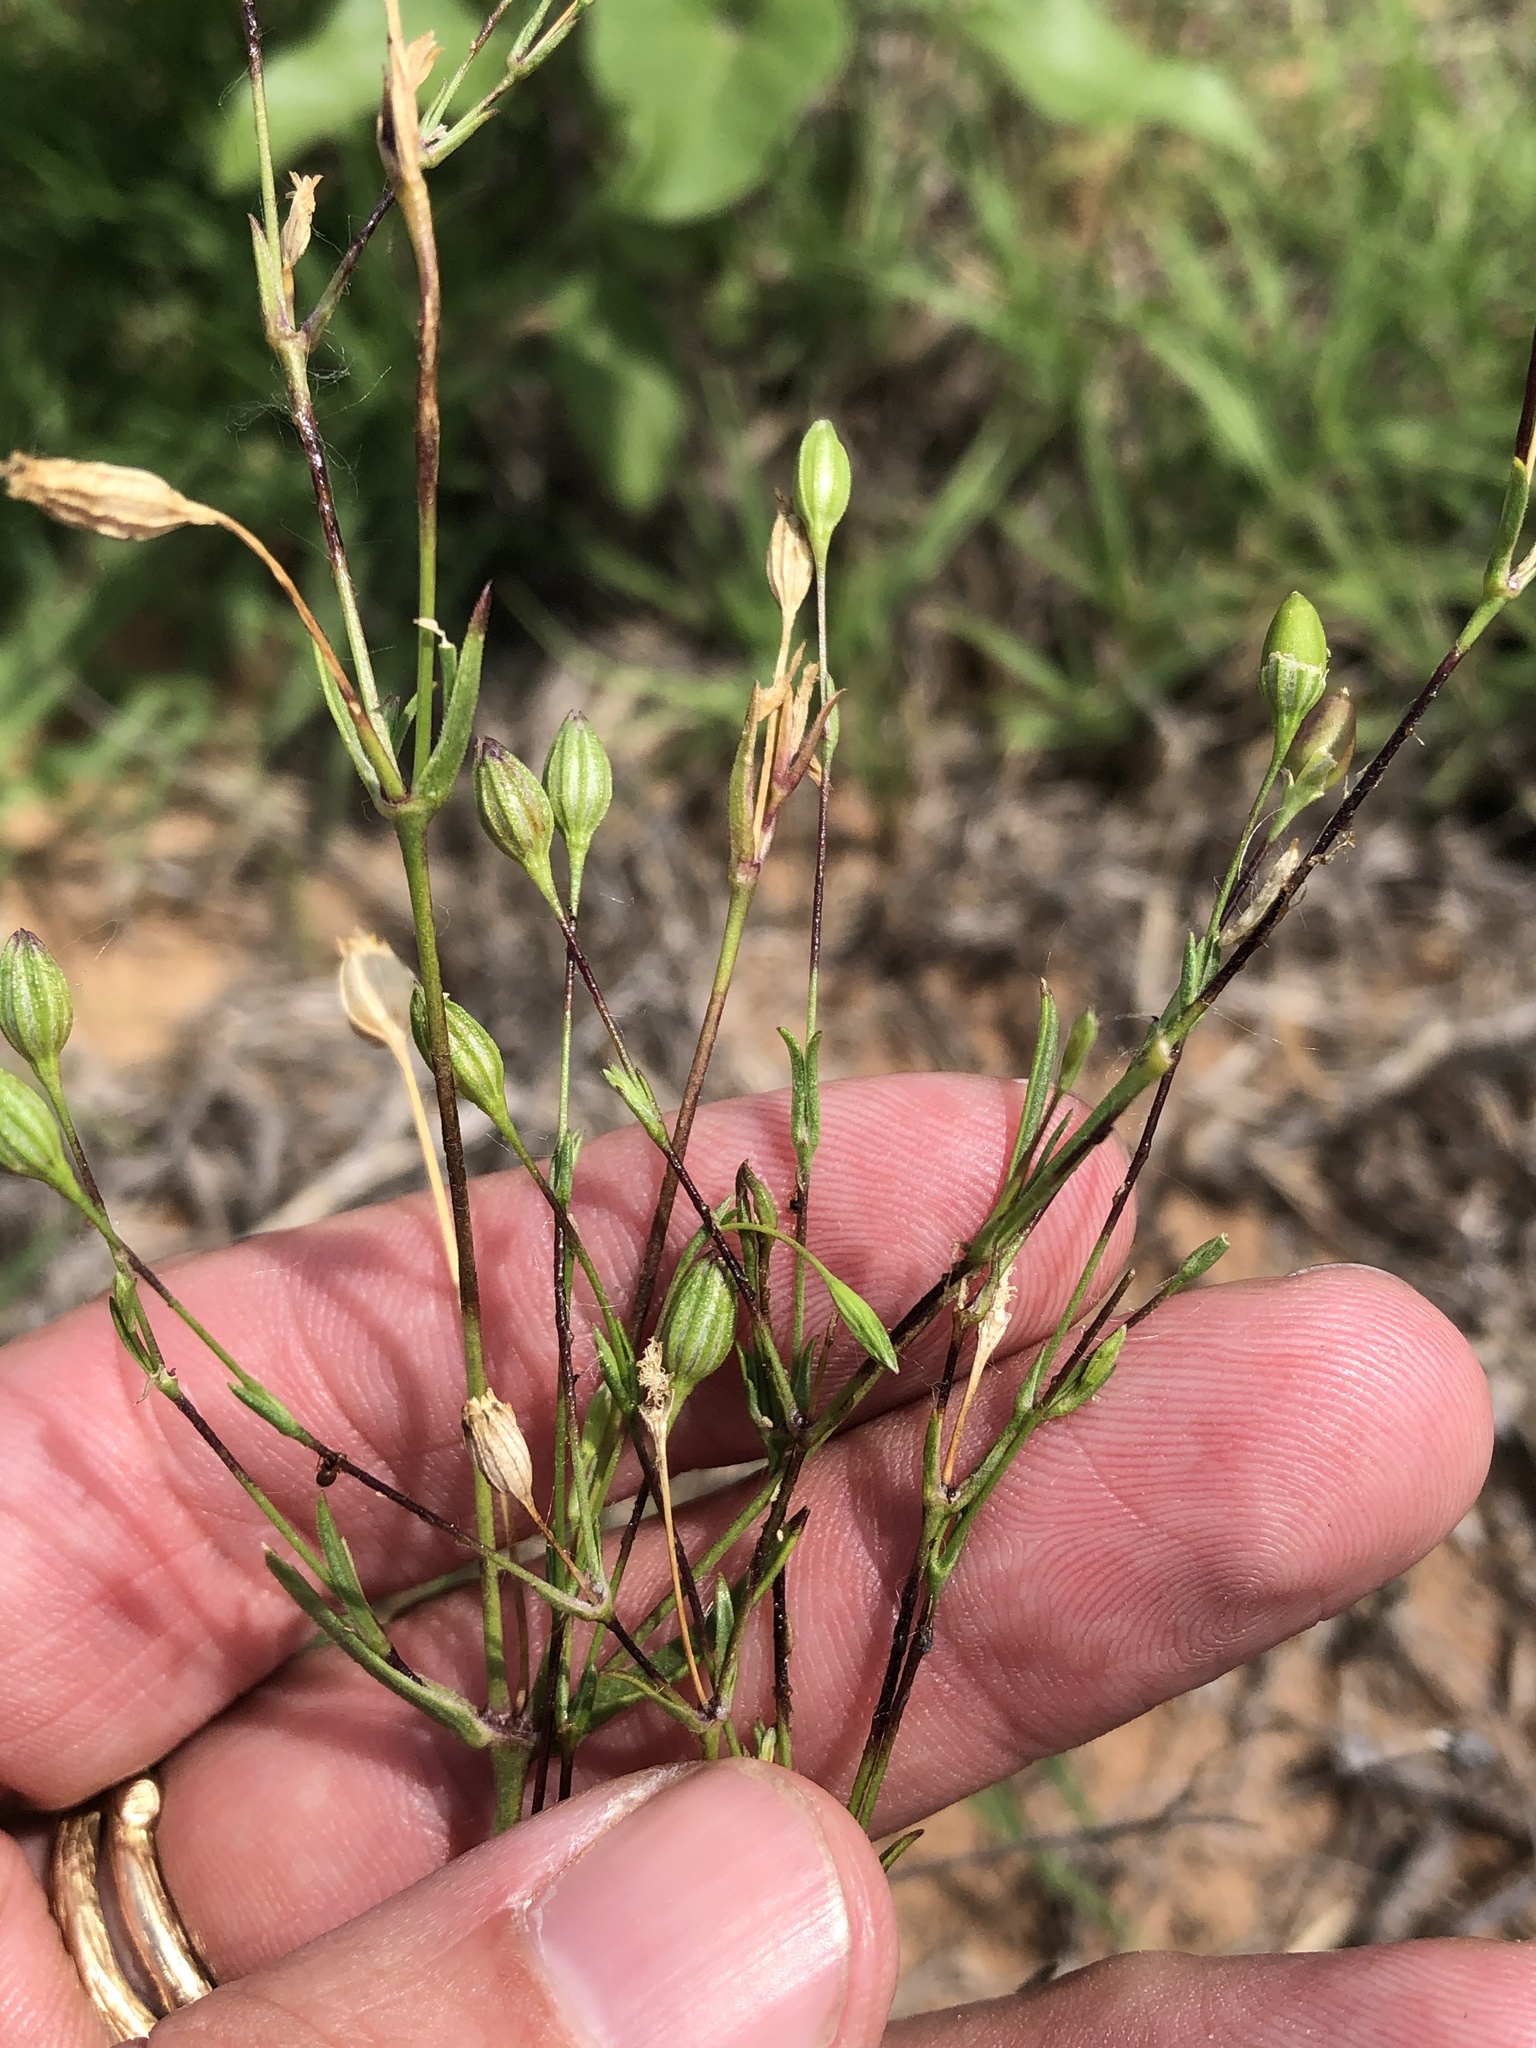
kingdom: Plantae
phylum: Tracheophyta
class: Magnoliopsida
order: Caryophyllales
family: Caryophyllaceae
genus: Silene
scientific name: Silene antirrhina
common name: Sleepy catchfly
